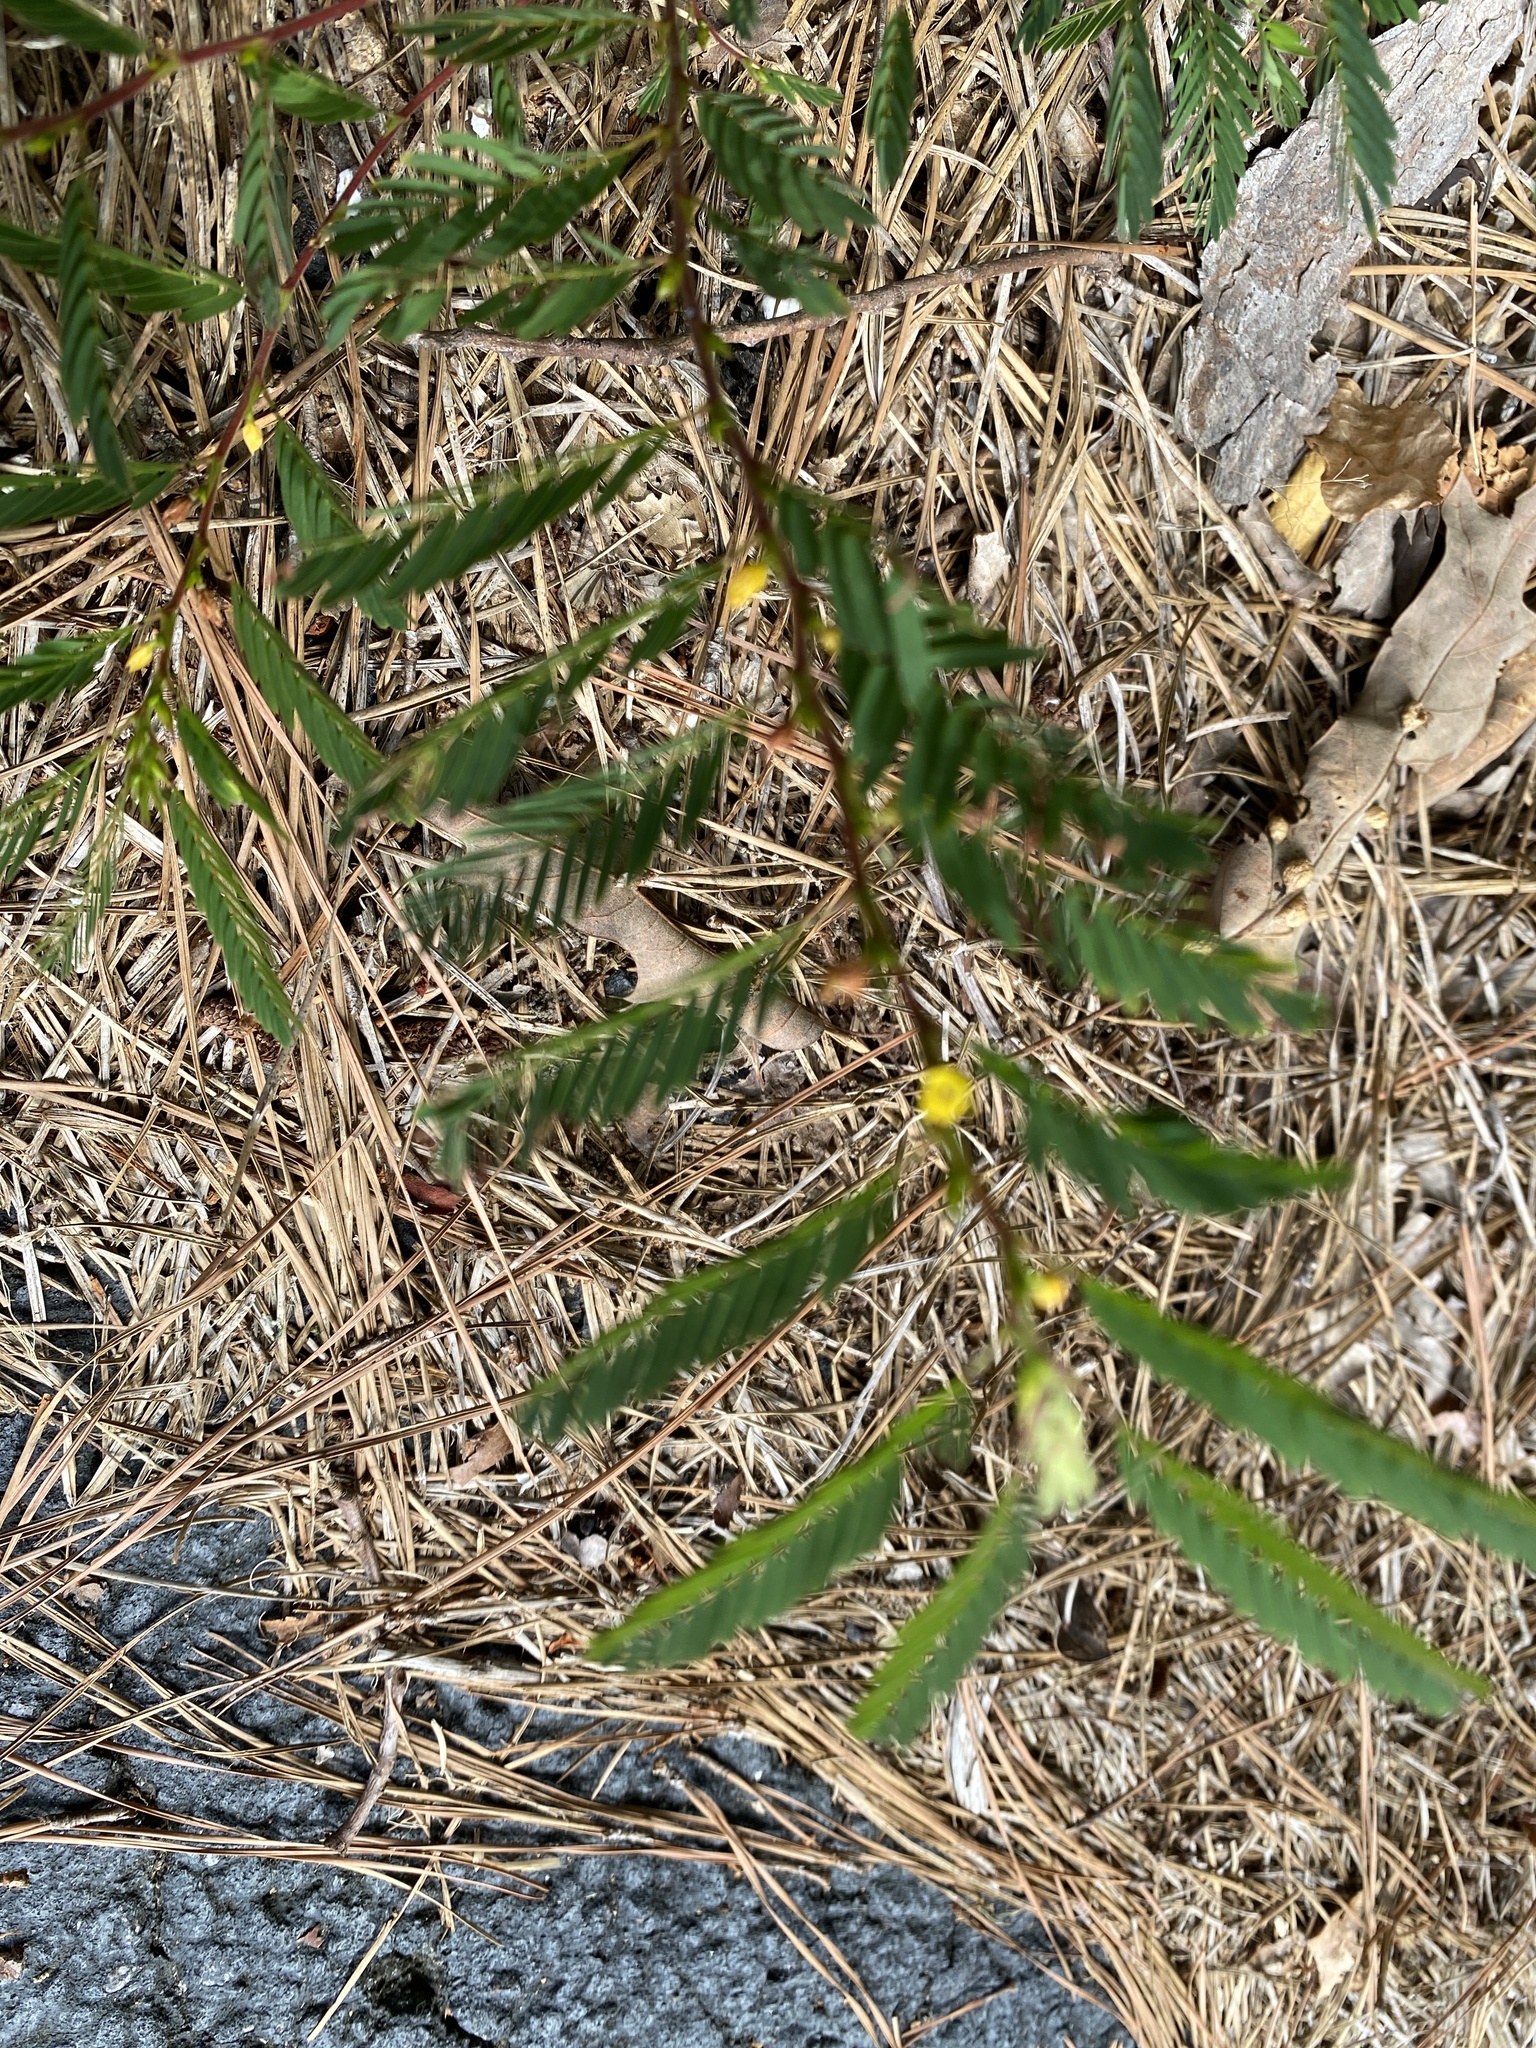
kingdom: Plantae
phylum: Tracheophyta
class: Magnoliopsida
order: Fabales
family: Fabaceae
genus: Chamaecrista
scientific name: Chamaecrista nictitans
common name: Sensitive cassia
